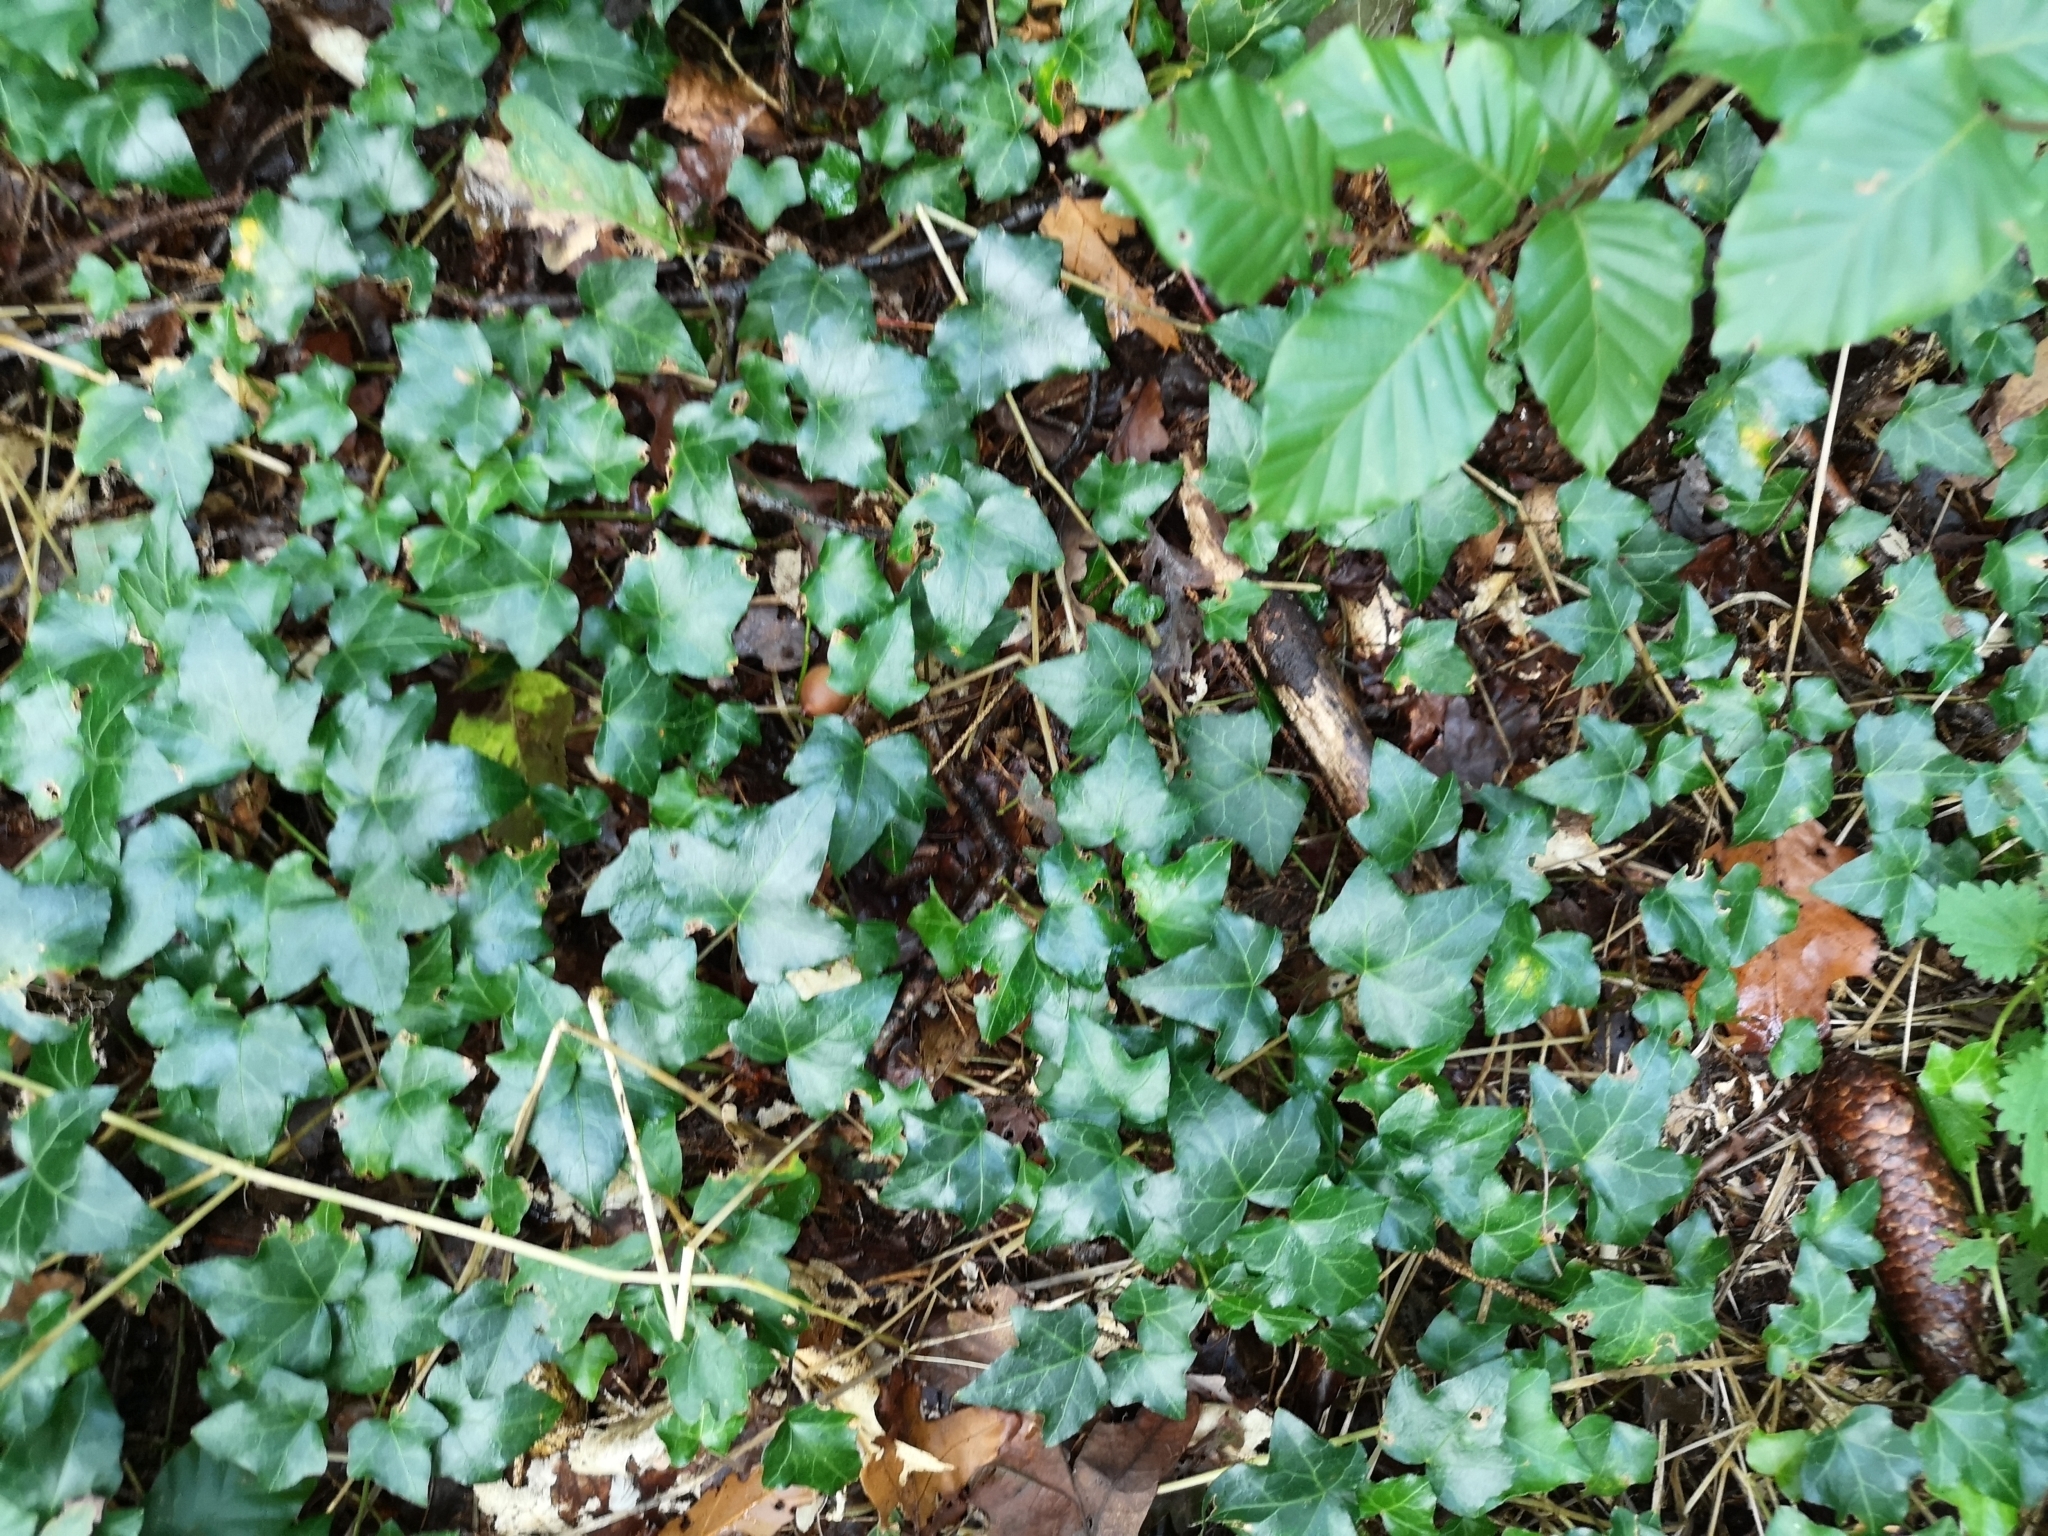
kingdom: Plantae
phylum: Tracheophyta
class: Magnoliopsida
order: Apiales
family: Araliaceae
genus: Hedera
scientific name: Hedera helix
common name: Ivy
